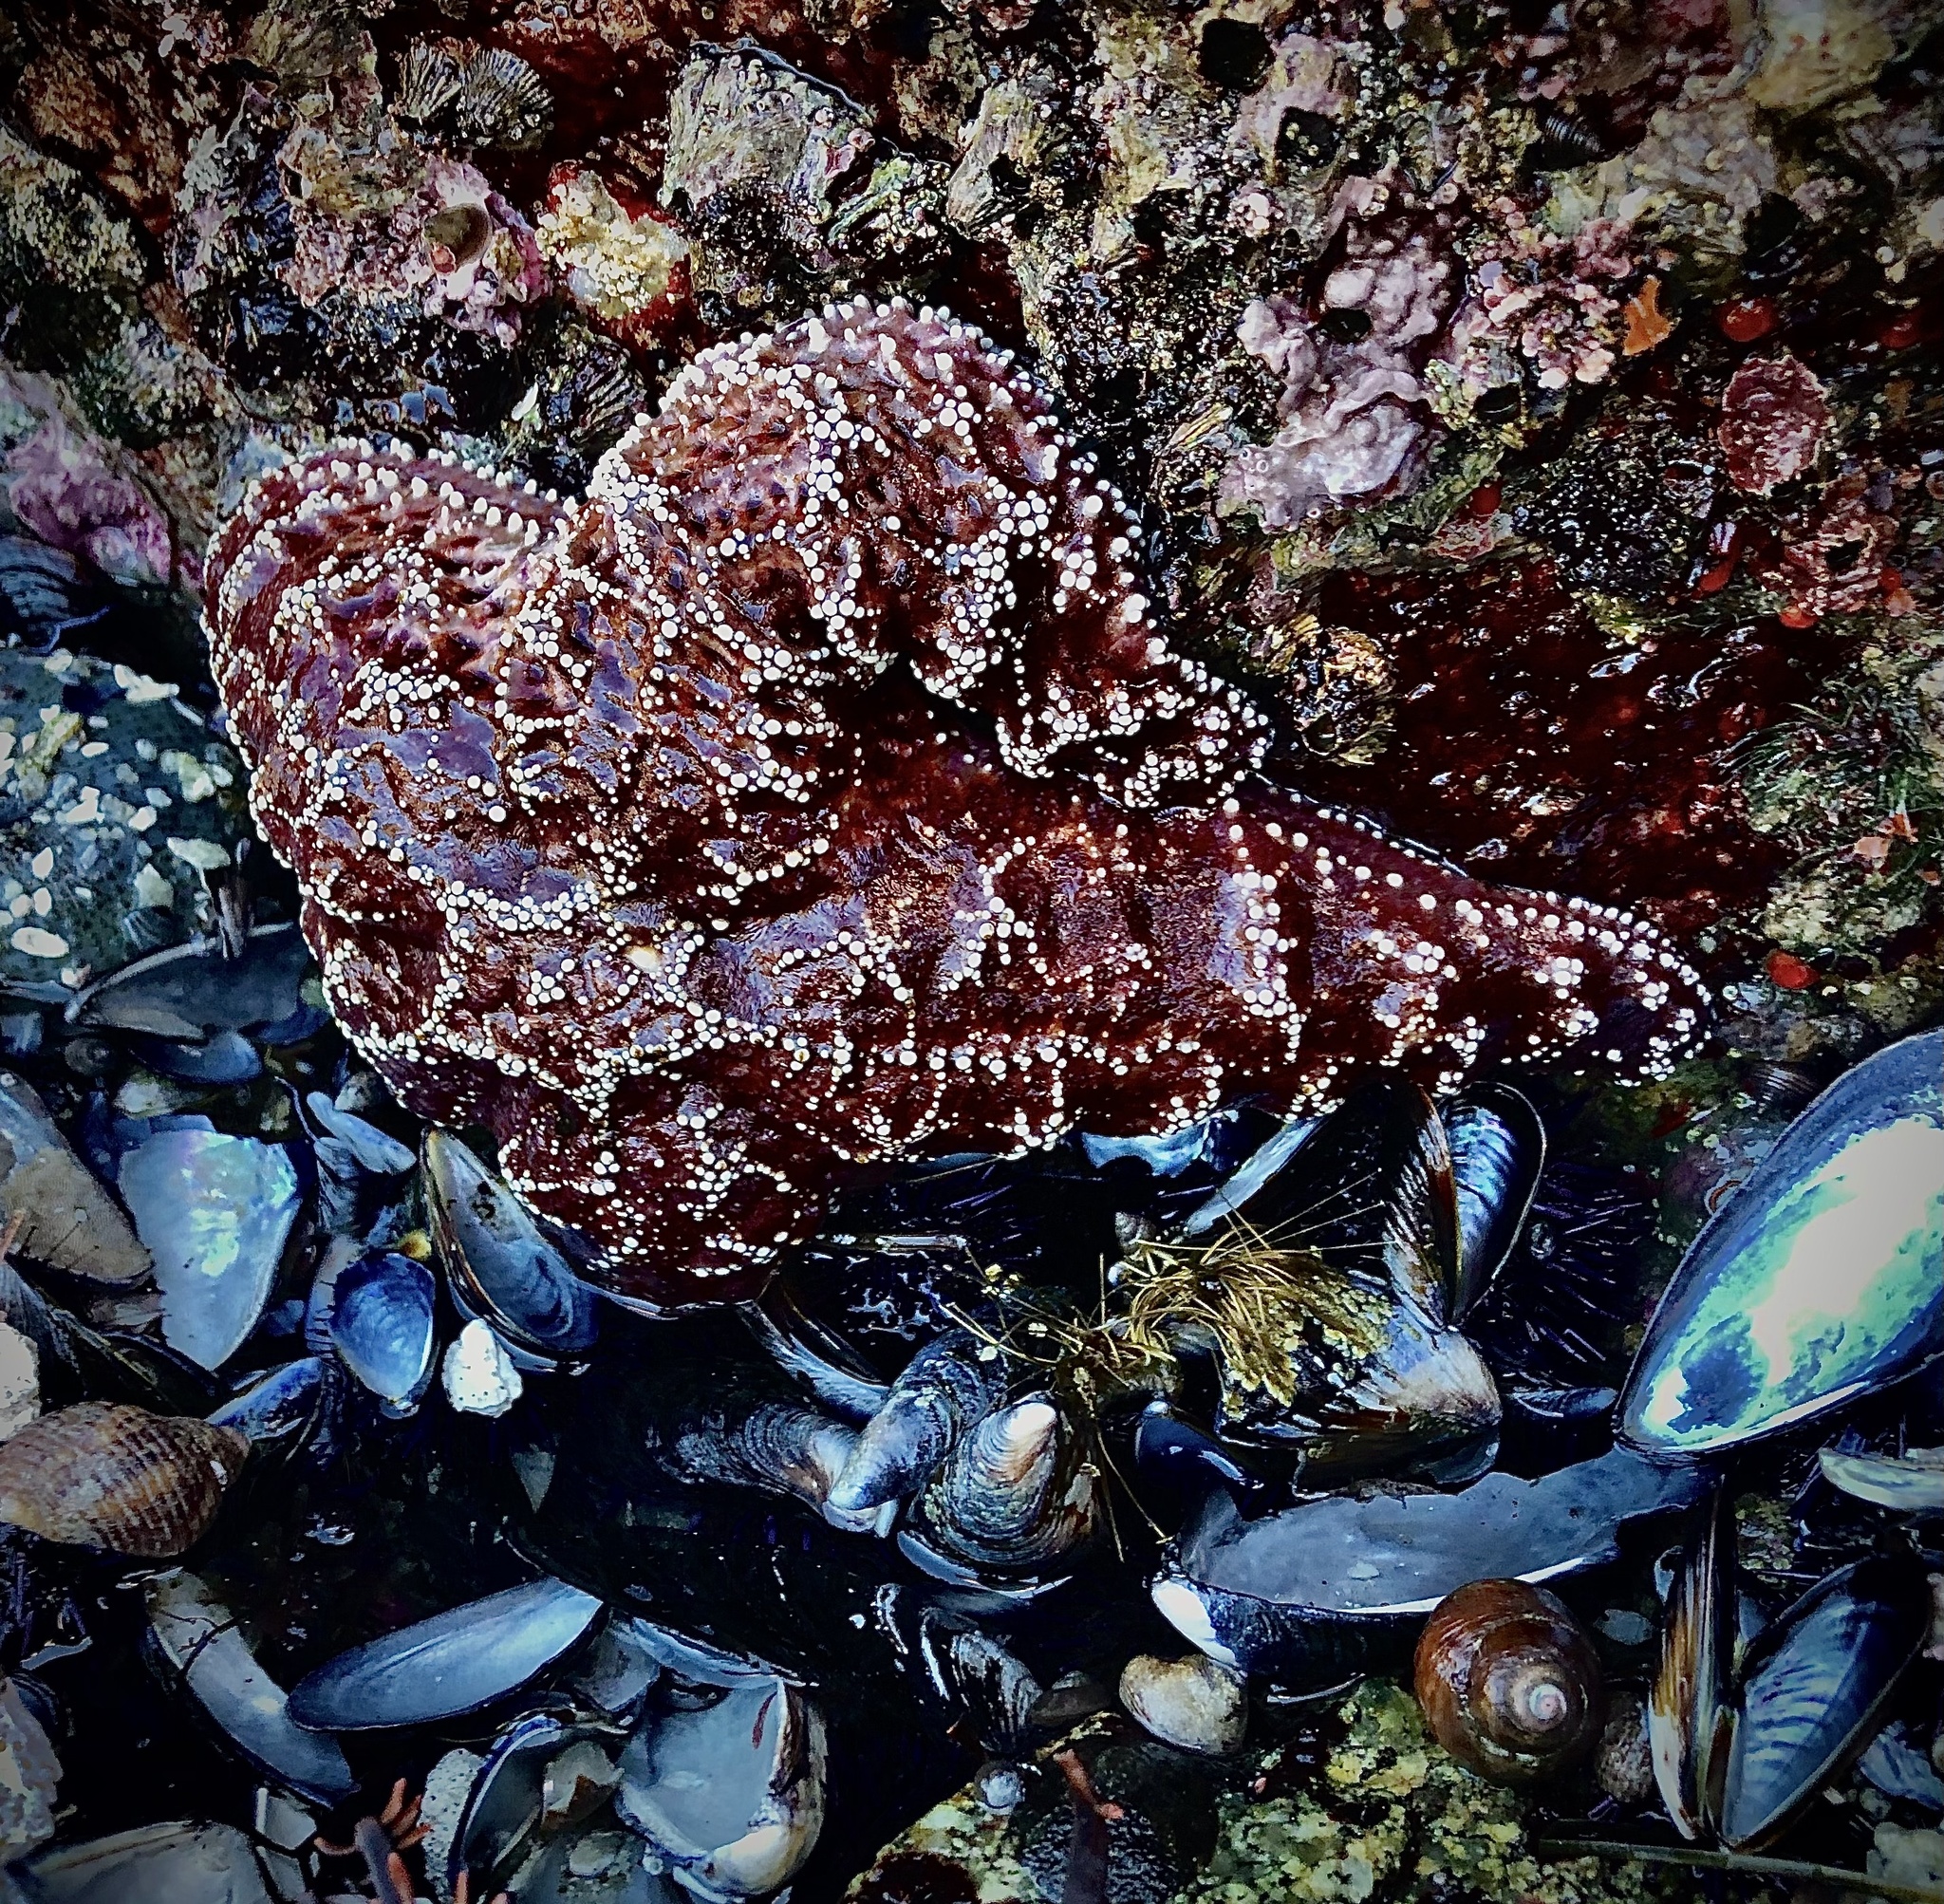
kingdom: Animalia
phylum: Echinodermata
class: Asteroidea
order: Forcipulatida
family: Asteriidae
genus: Pisaster
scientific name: Pisaster ochraceus
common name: Ochre stars
